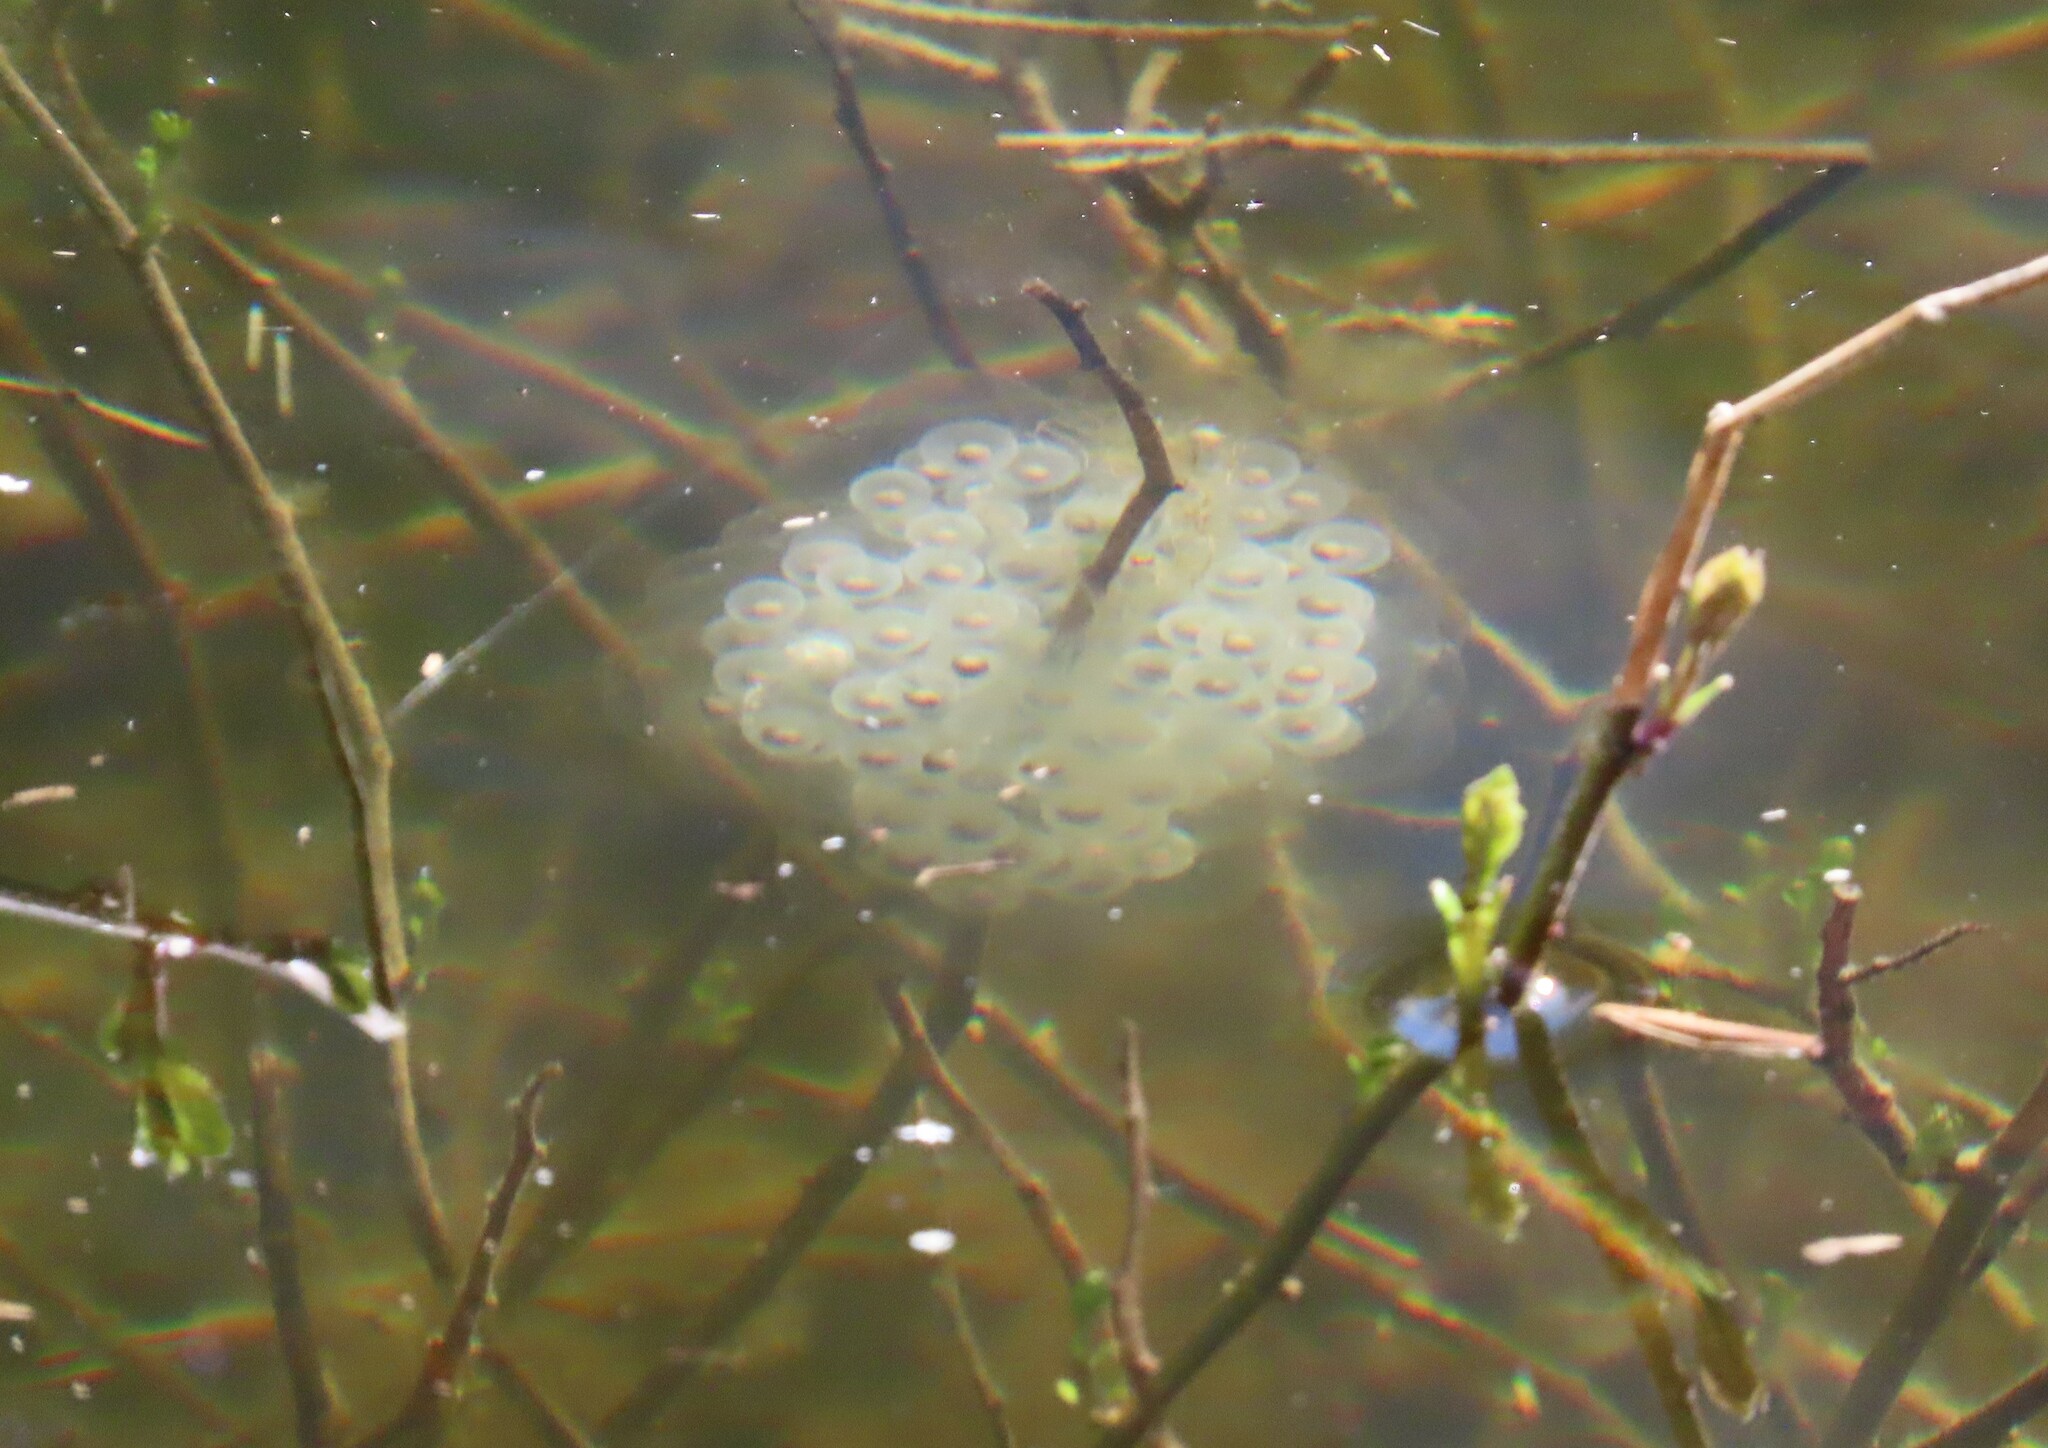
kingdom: Animalia
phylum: Chordata
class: Amphibia
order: Caudata
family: Ambystomatidae
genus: Ambystoma
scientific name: Ambystoma maculatum
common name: Spotted salamander
